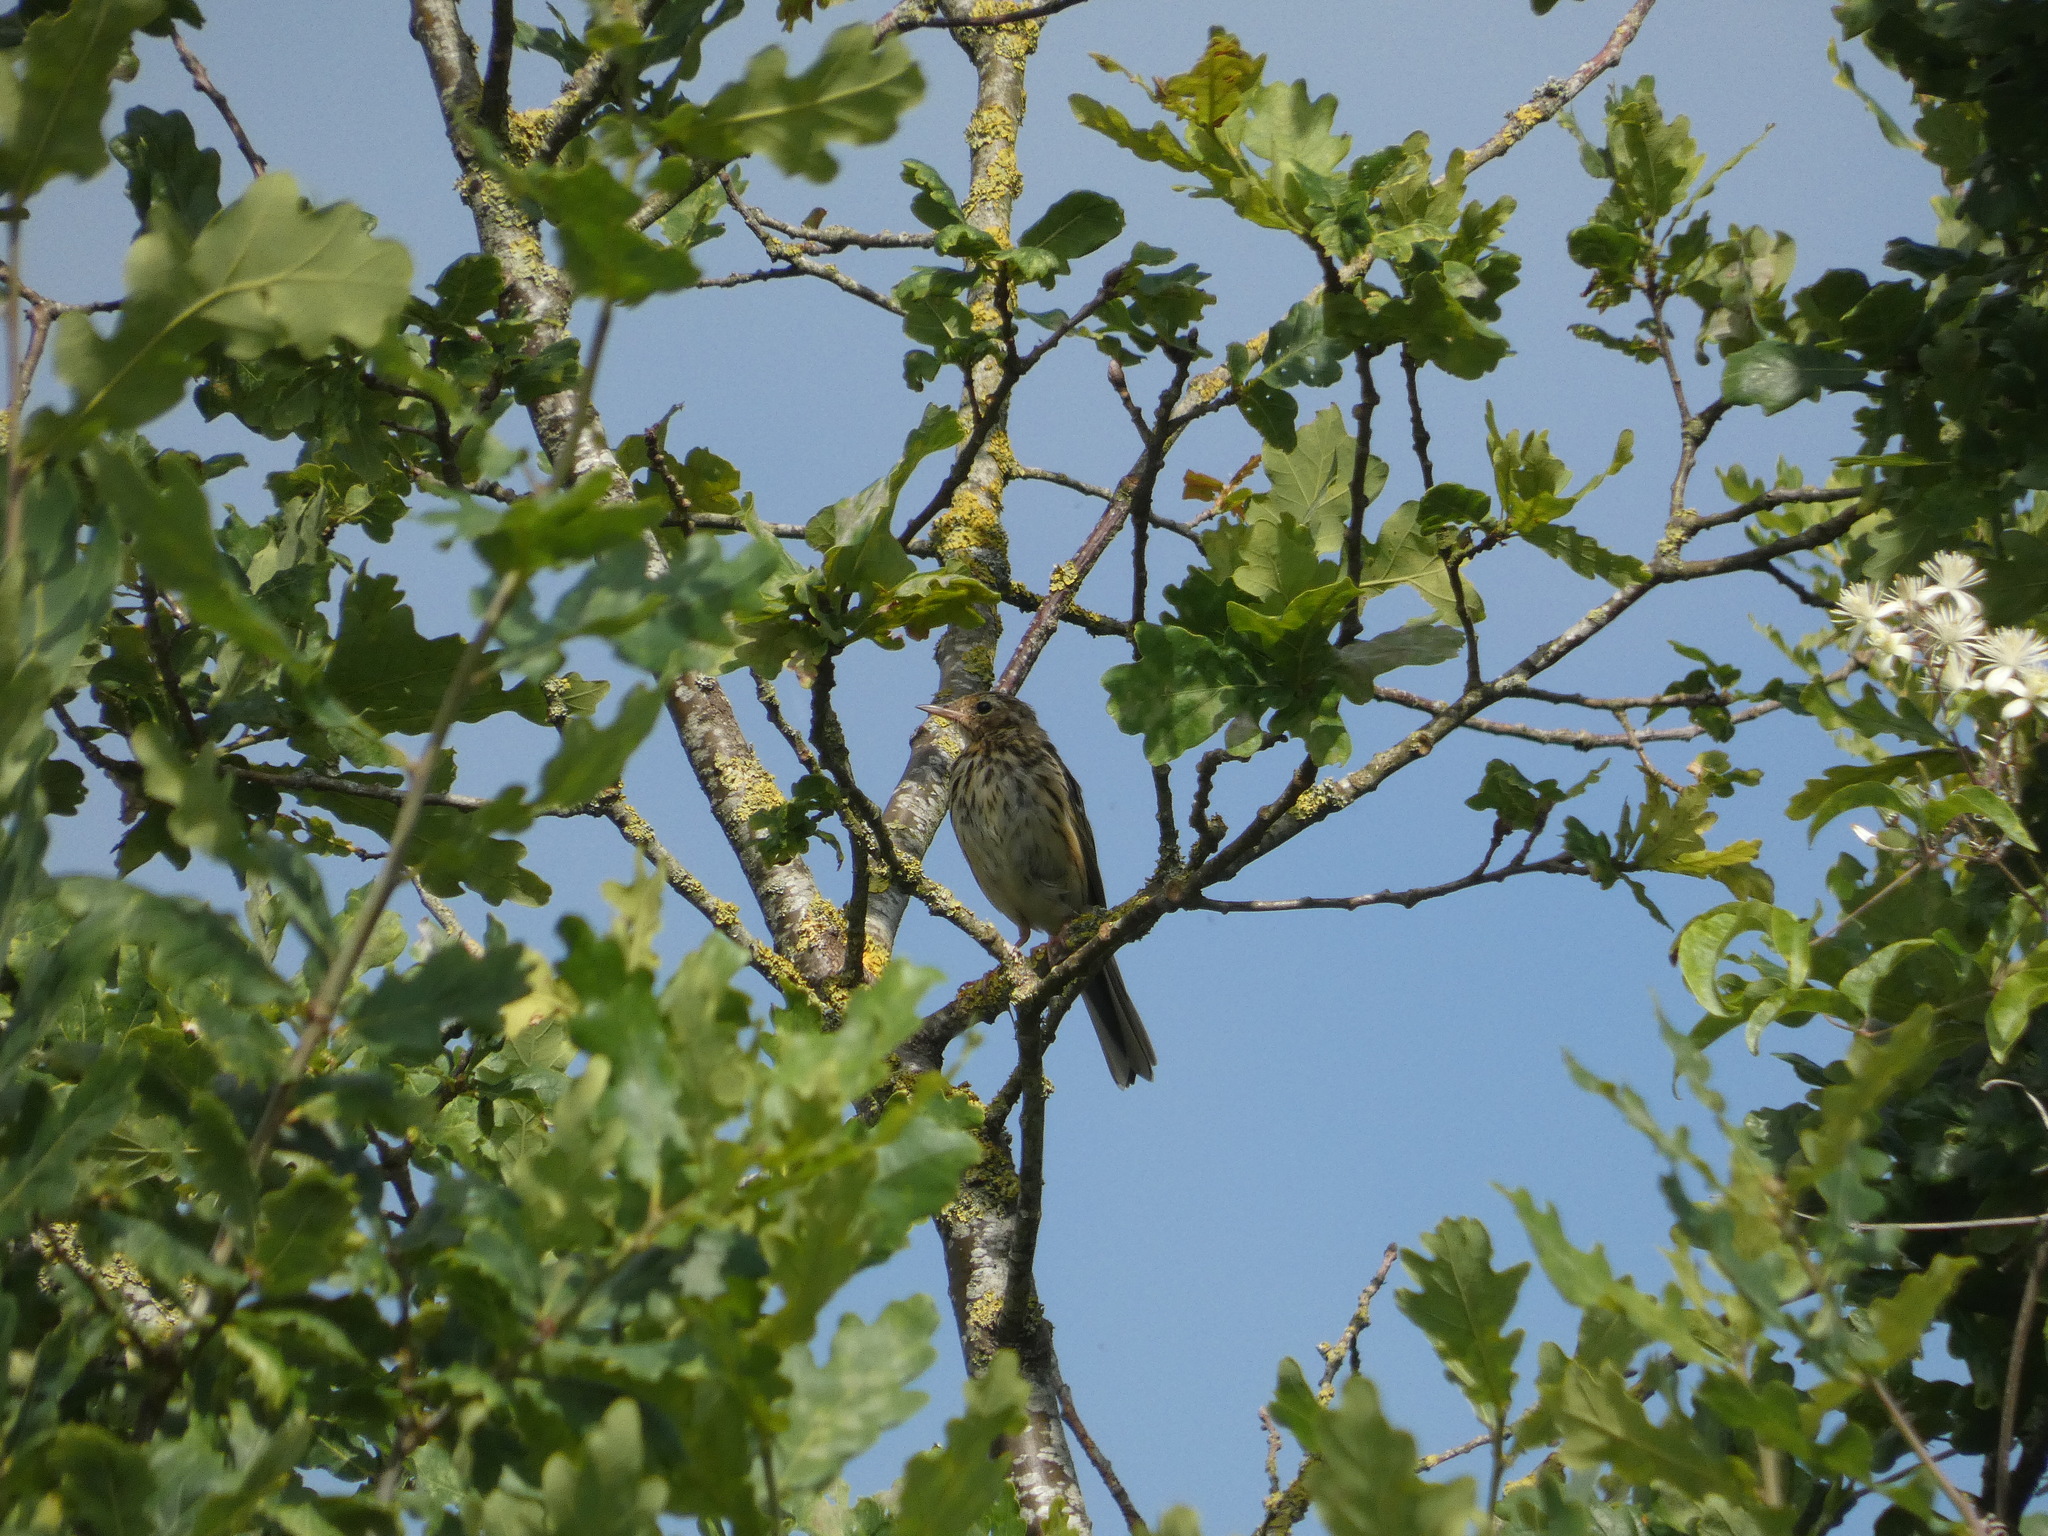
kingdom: Animalia
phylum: Chordata
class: Aves
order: Passeriformes
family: Motacillidae
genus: Anthus
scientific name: Anthus trivialis
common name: Tree pipit
